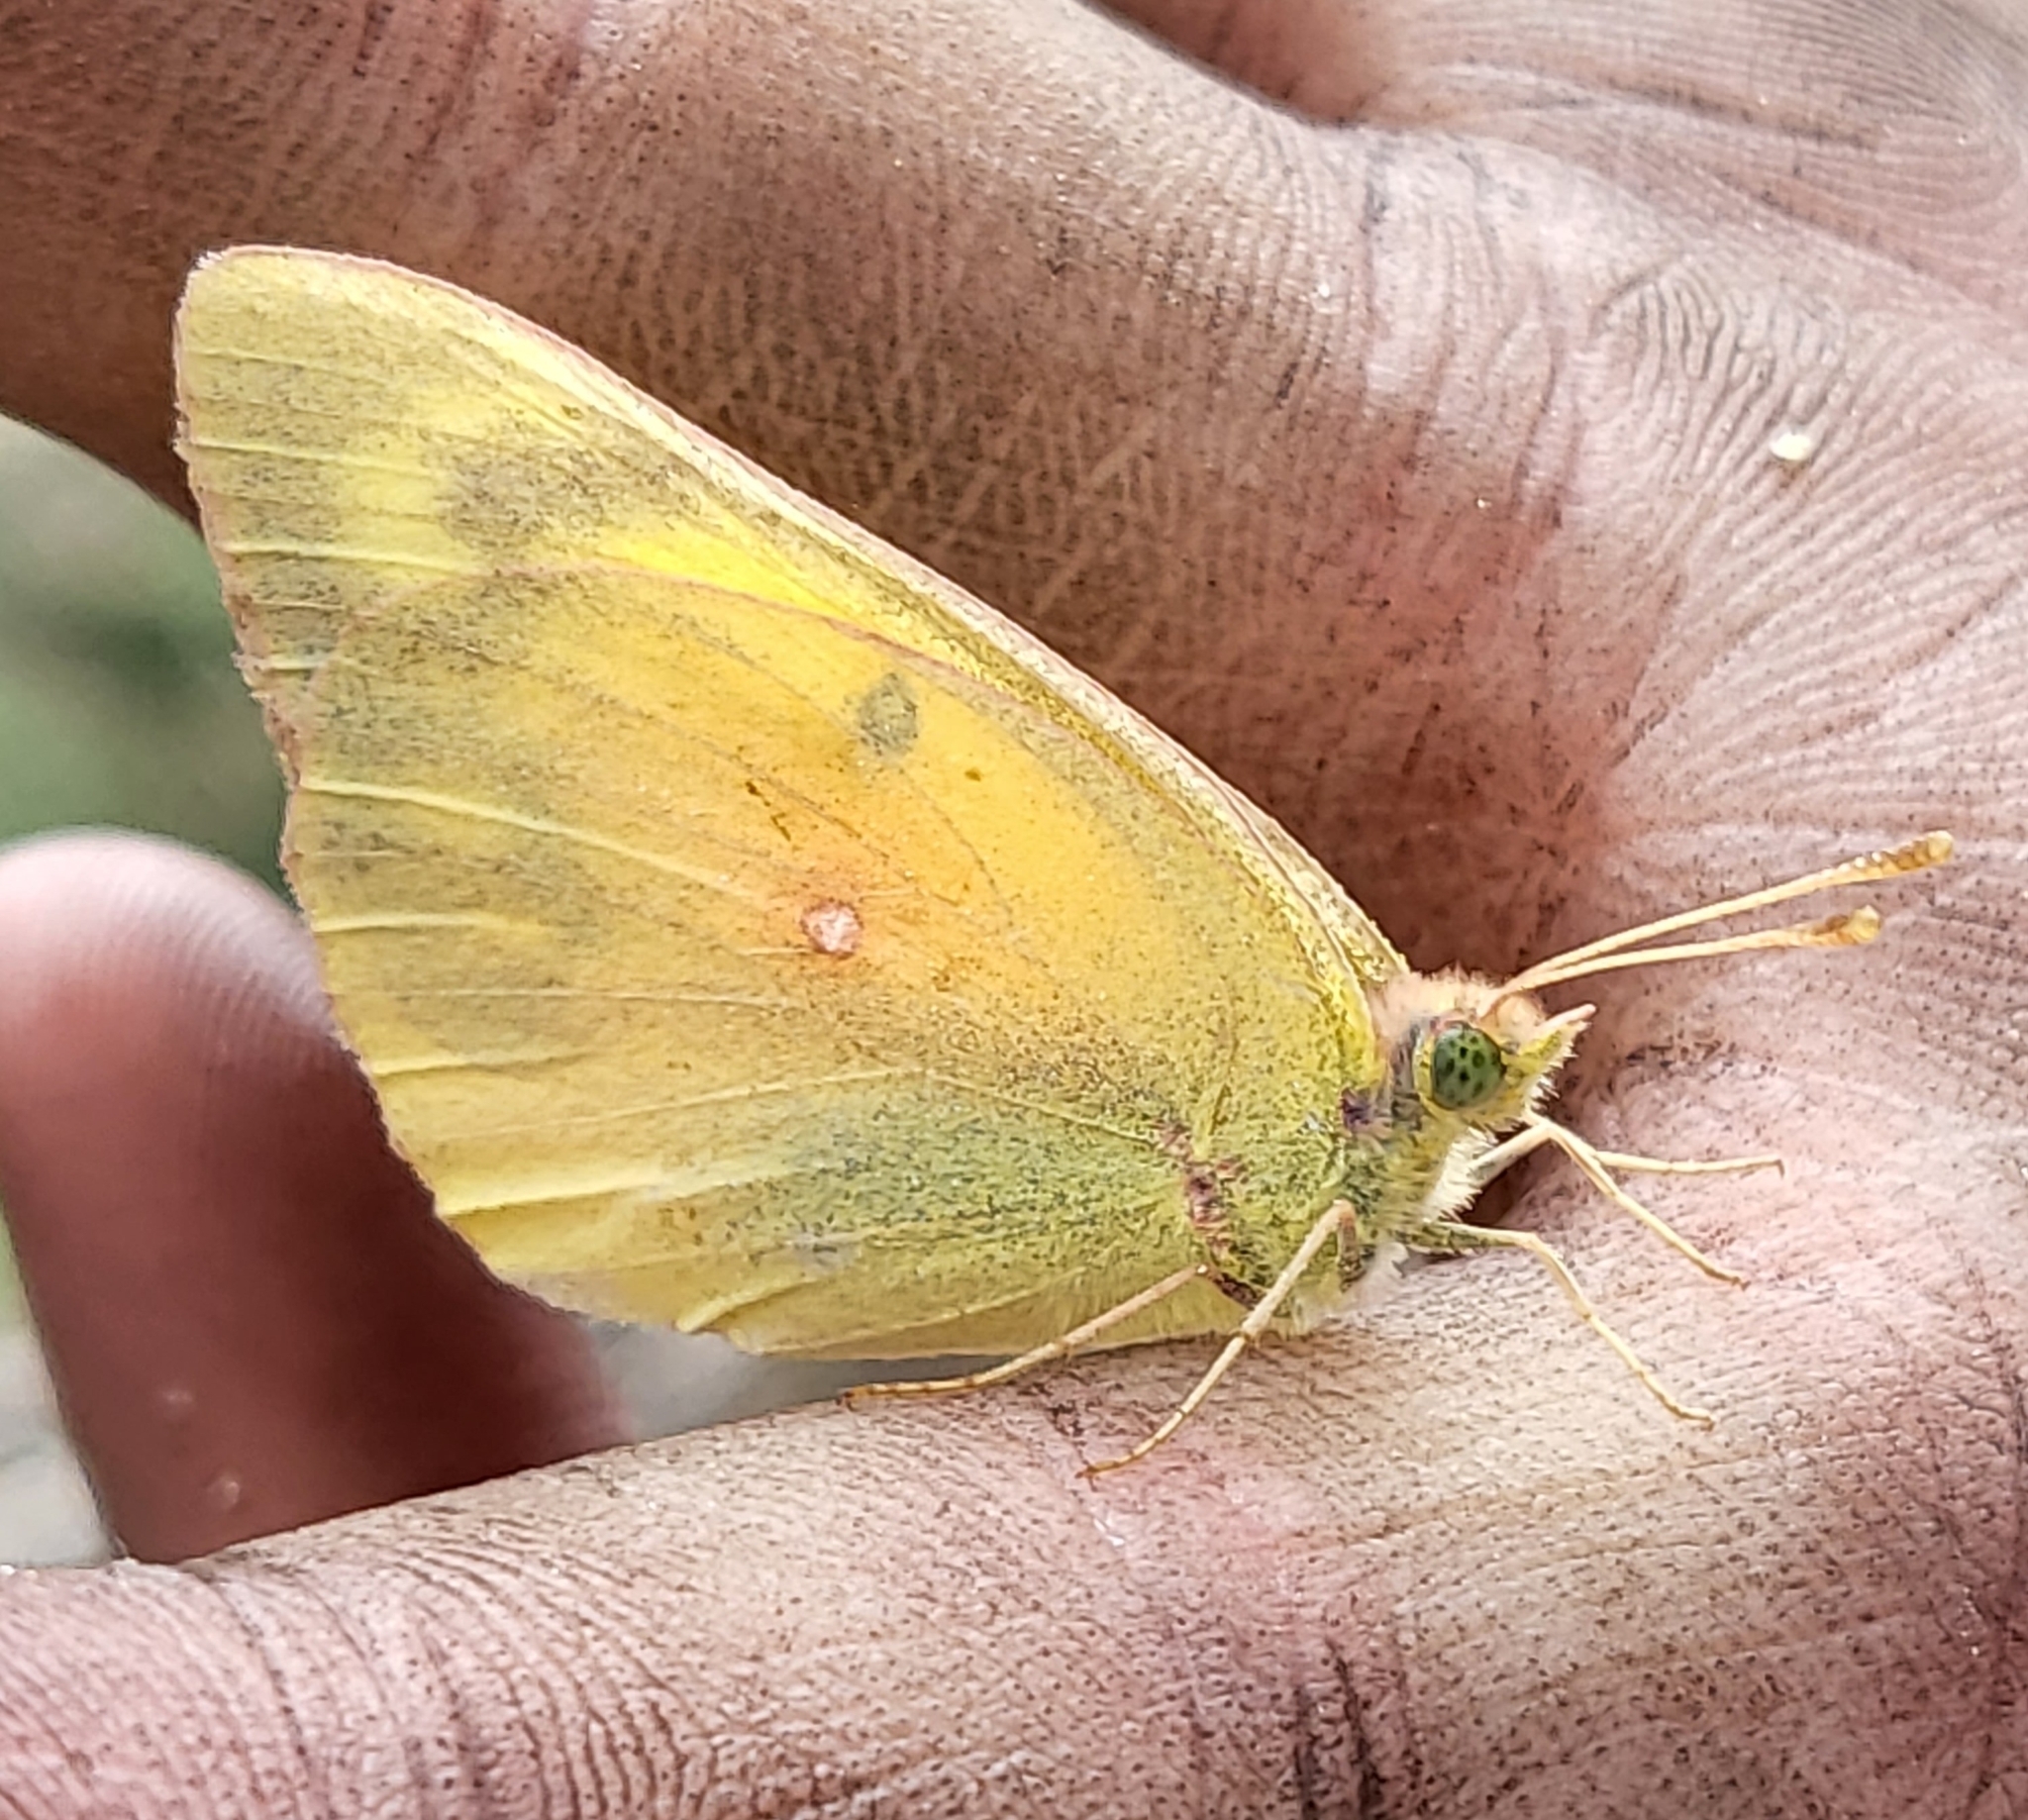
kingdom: Animalia
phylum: Arthropoda
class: Insecta
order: Lepidoptera
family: Pieridae
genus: Colias
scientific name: Colias eurytheme
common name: Alfalfa butterfly
